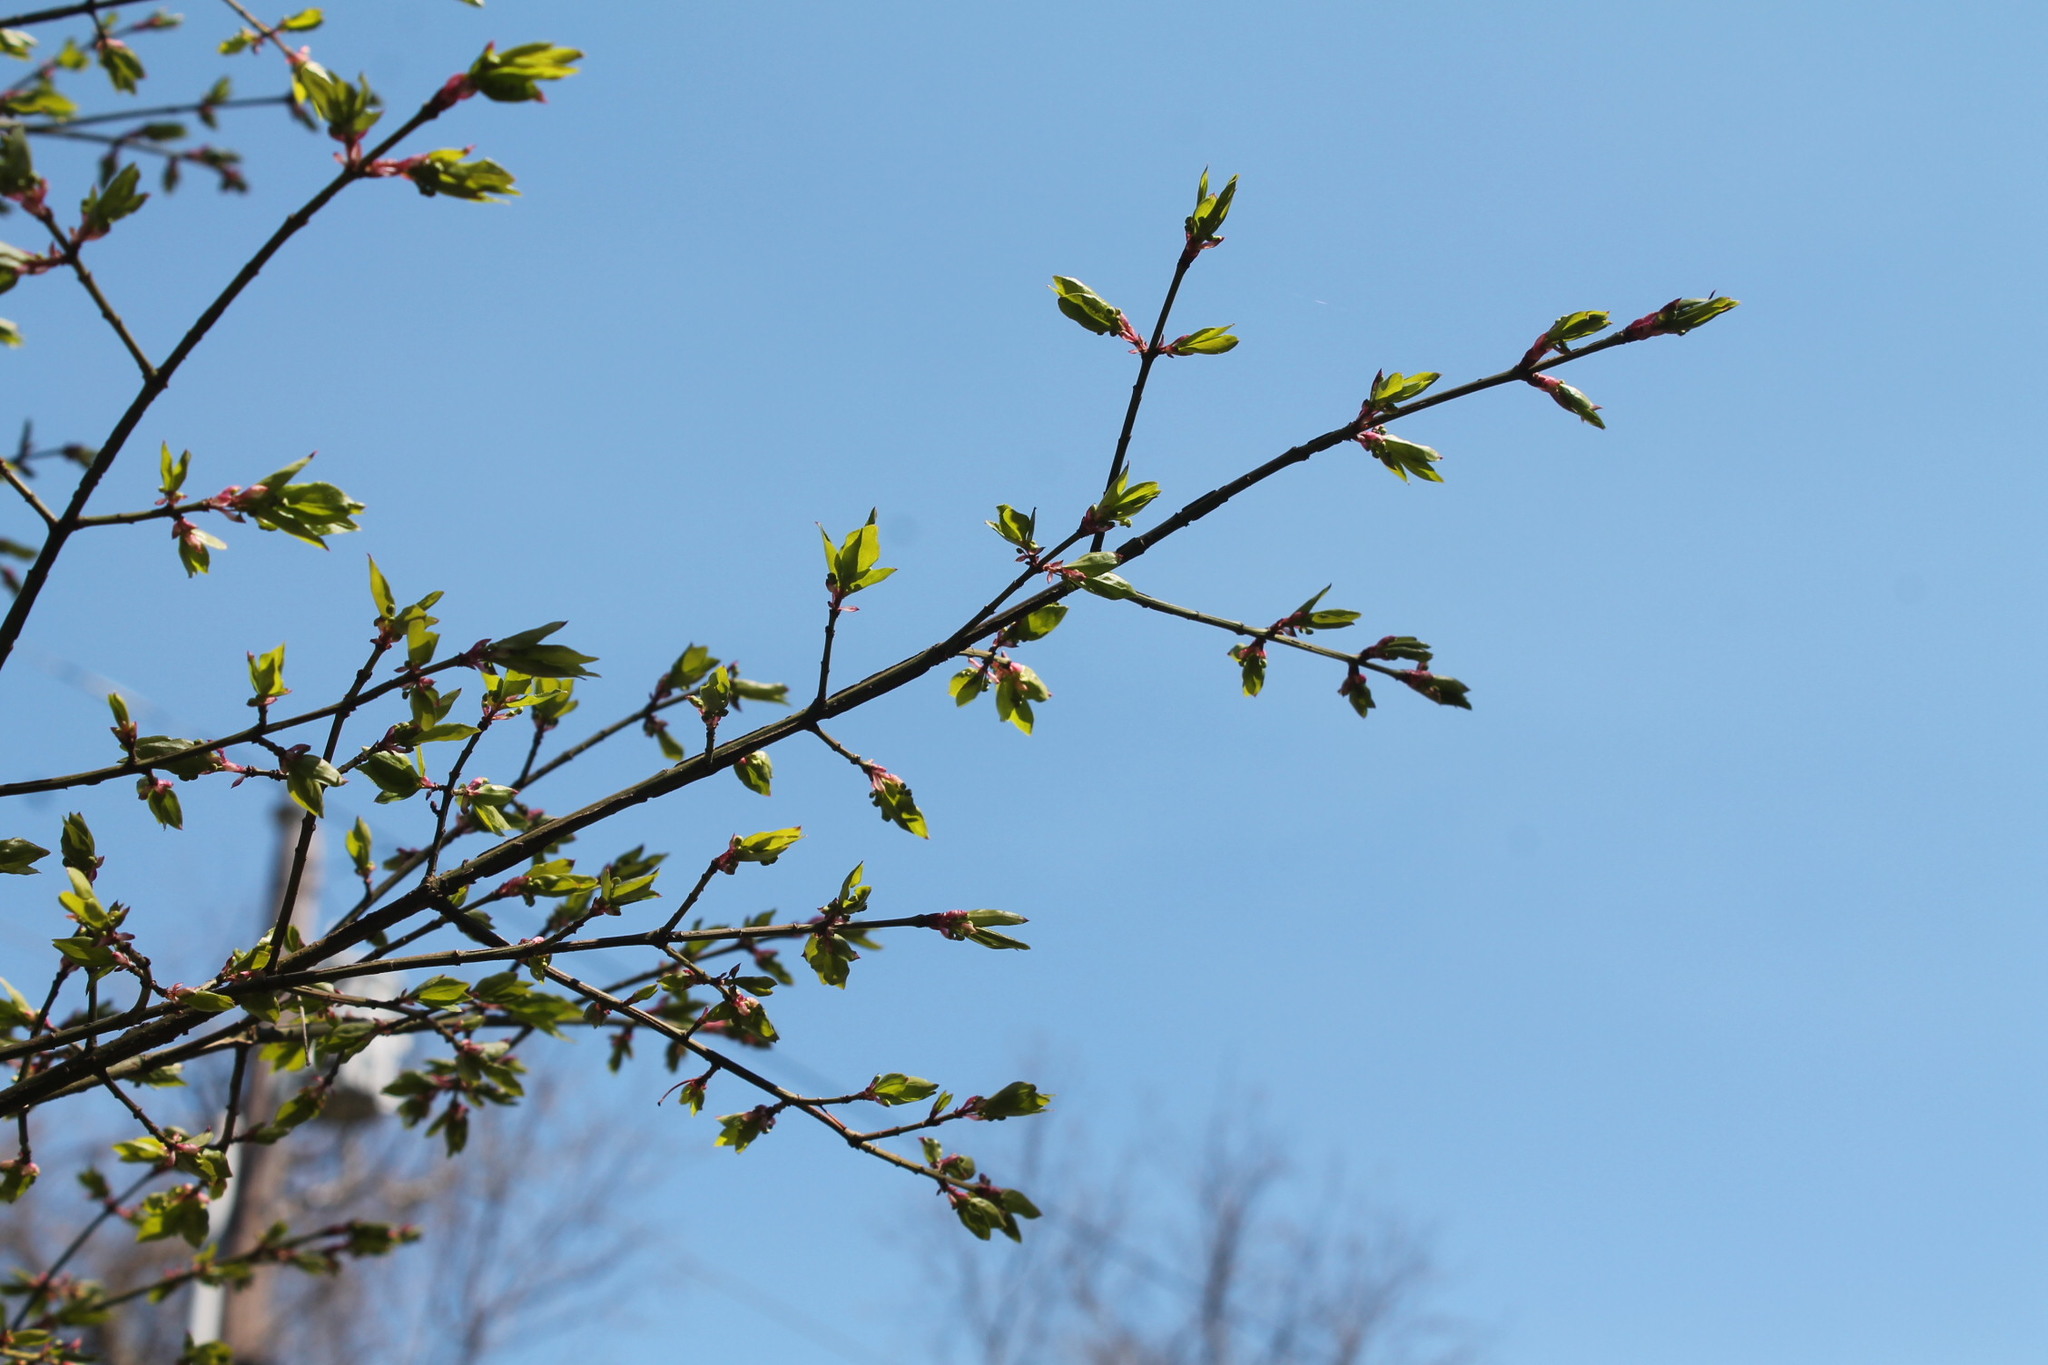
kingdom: Plantae
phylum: Tracheophyta
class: Magnoliopsida
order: Celastrales
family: Celastraceae
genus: Euonymus
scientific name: Euonymus alatus
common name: Winged euonymus
